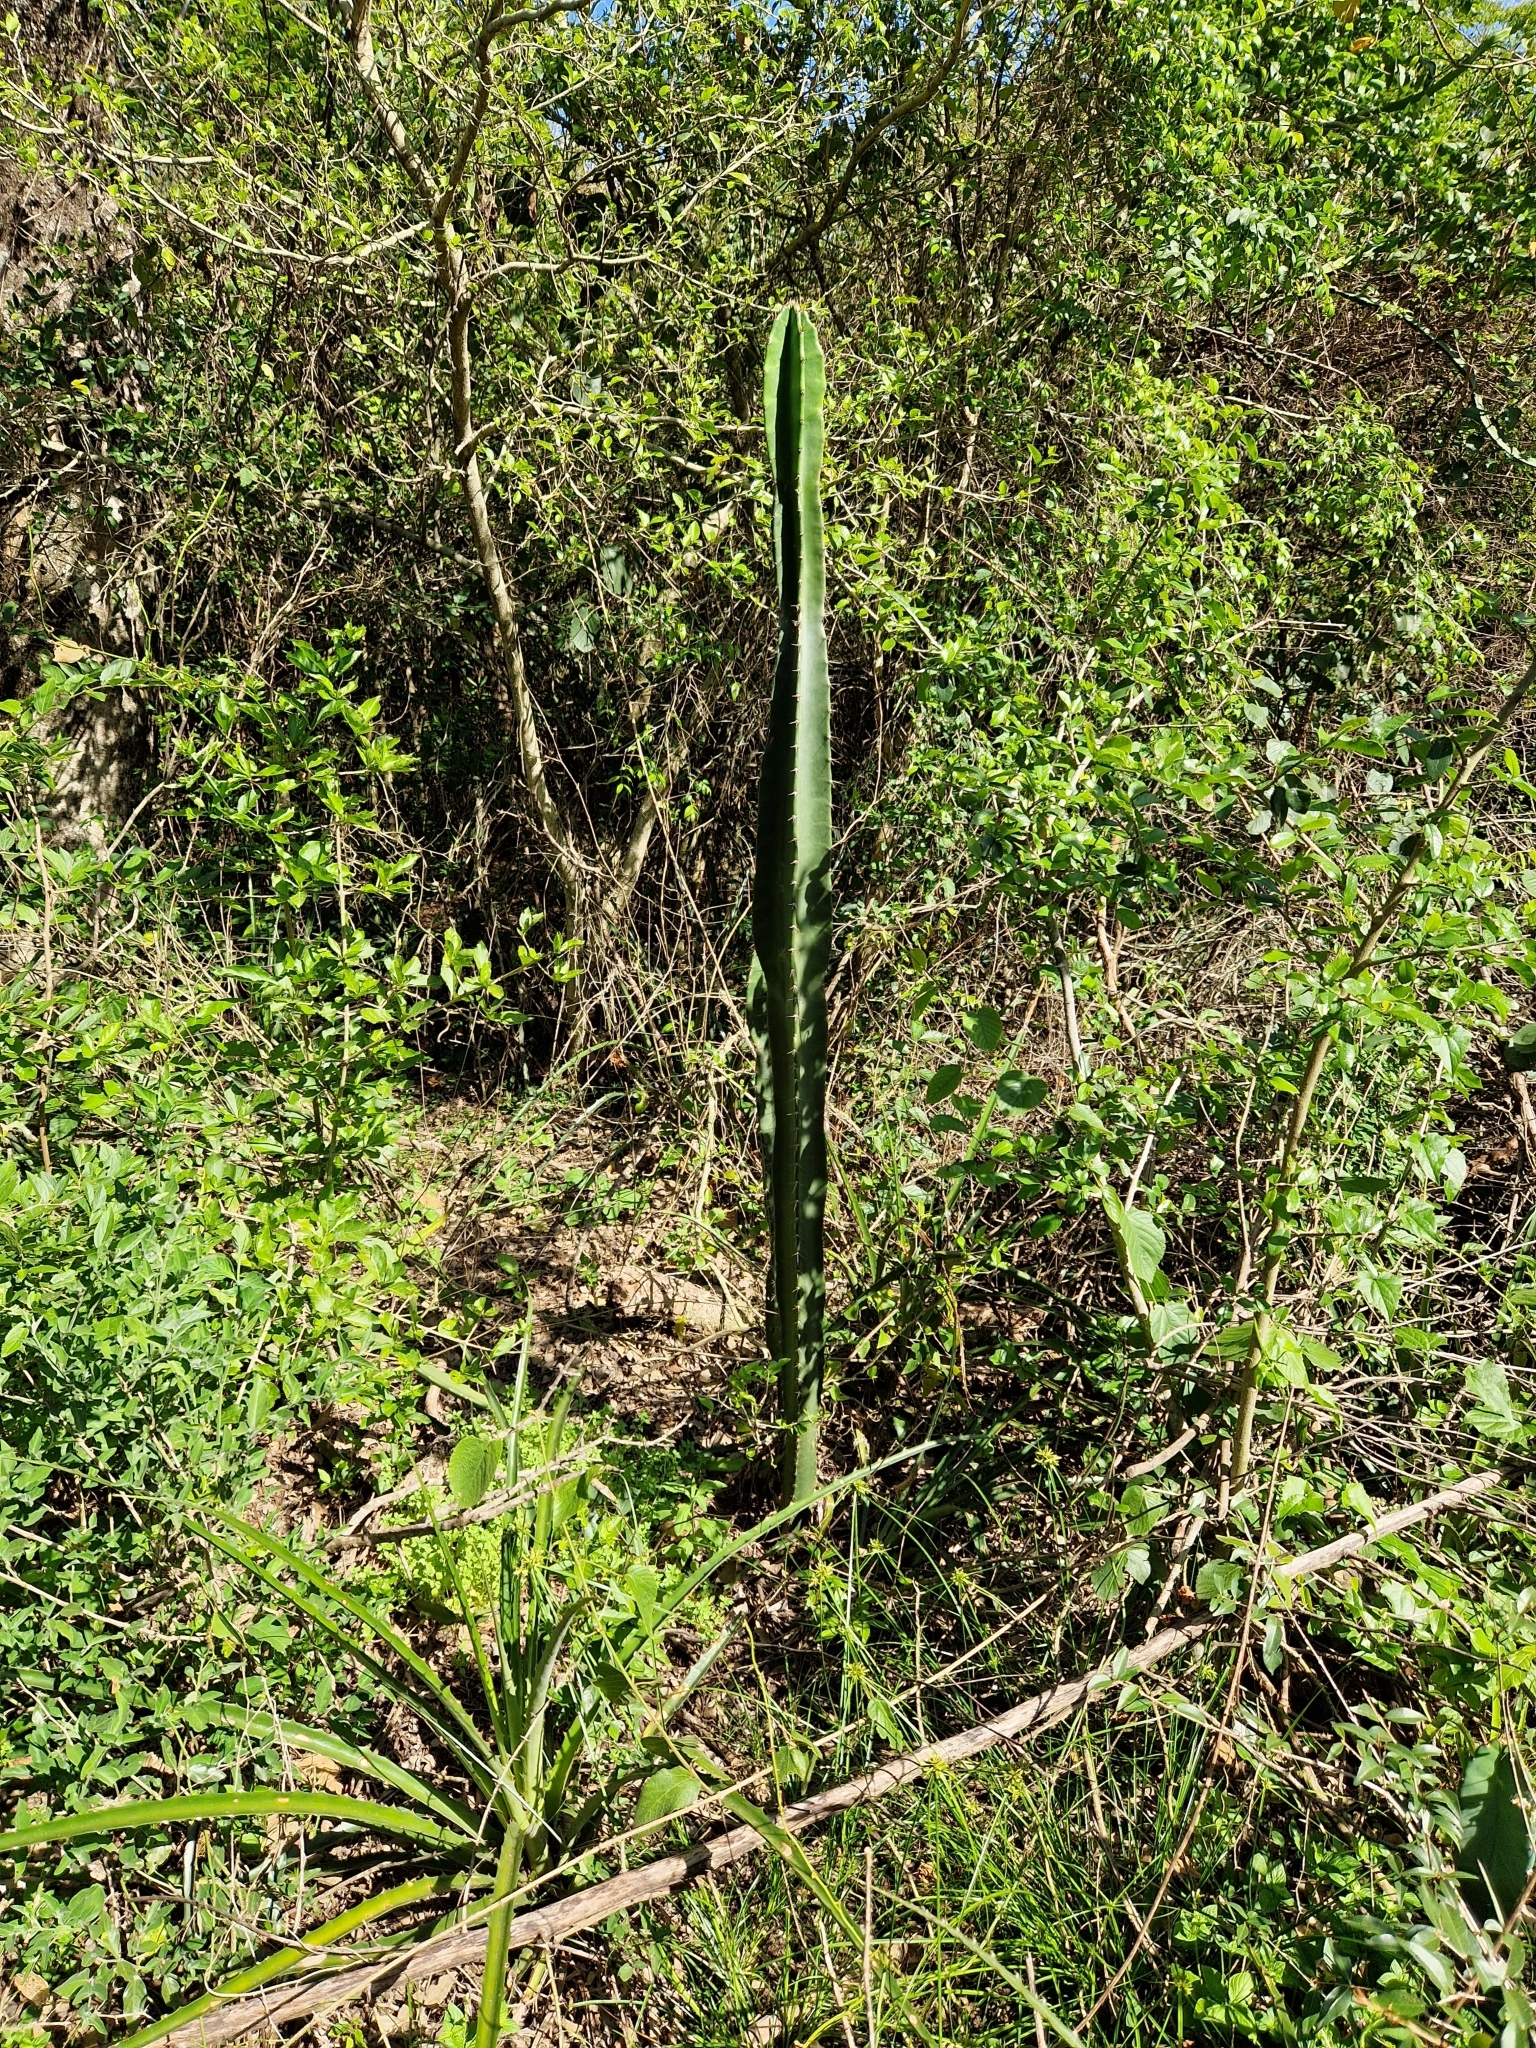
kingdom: Plantae
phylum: Tracheophyta
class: Magnoliopsida
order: Caryophyllales
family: Cactaceae
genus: Cereus
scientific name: Cereus stenogonus
